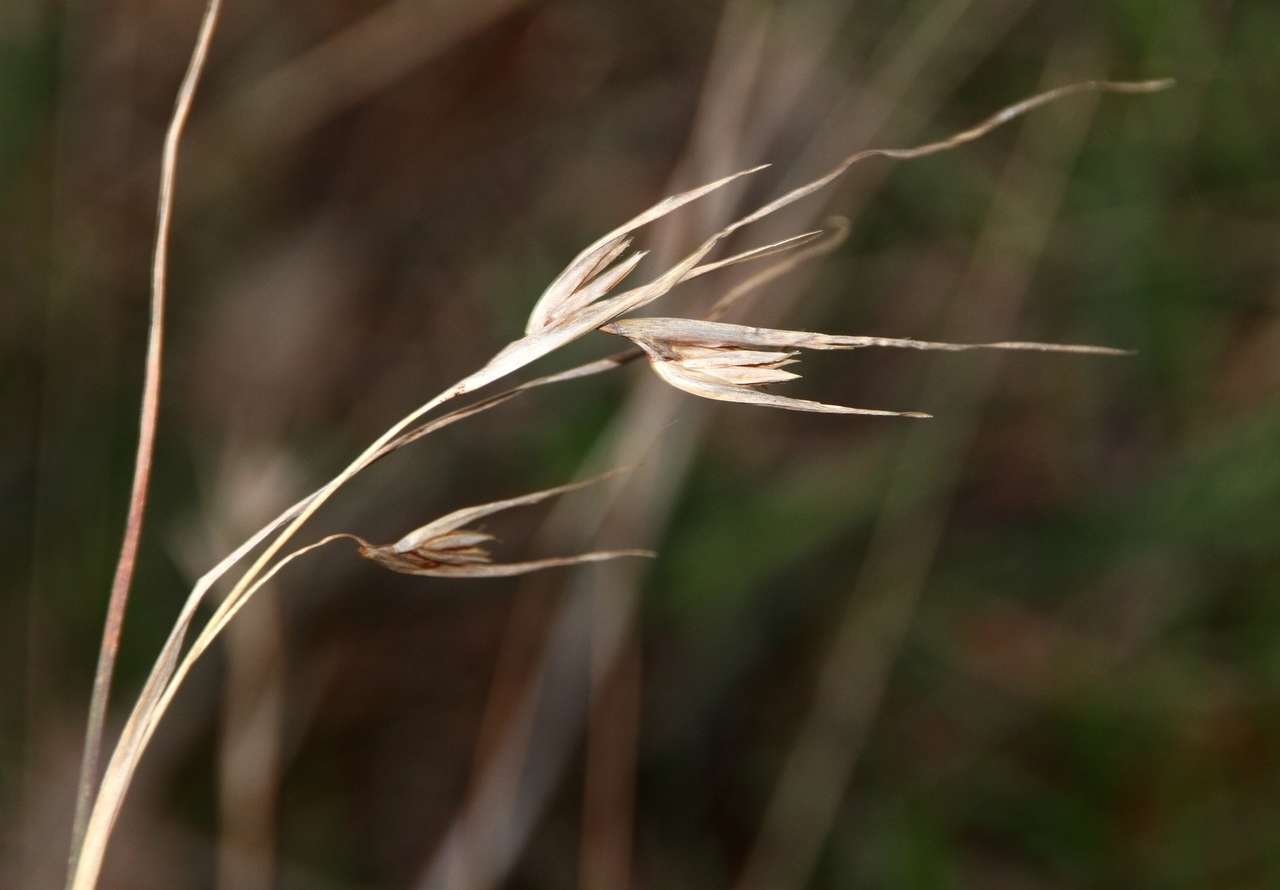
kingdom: Plantae
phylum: Tracheophyta
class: Liliopsida
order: Poales
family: Poaceae
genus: Themeda
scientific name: Themeda triandra
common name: Kangaroo grass
